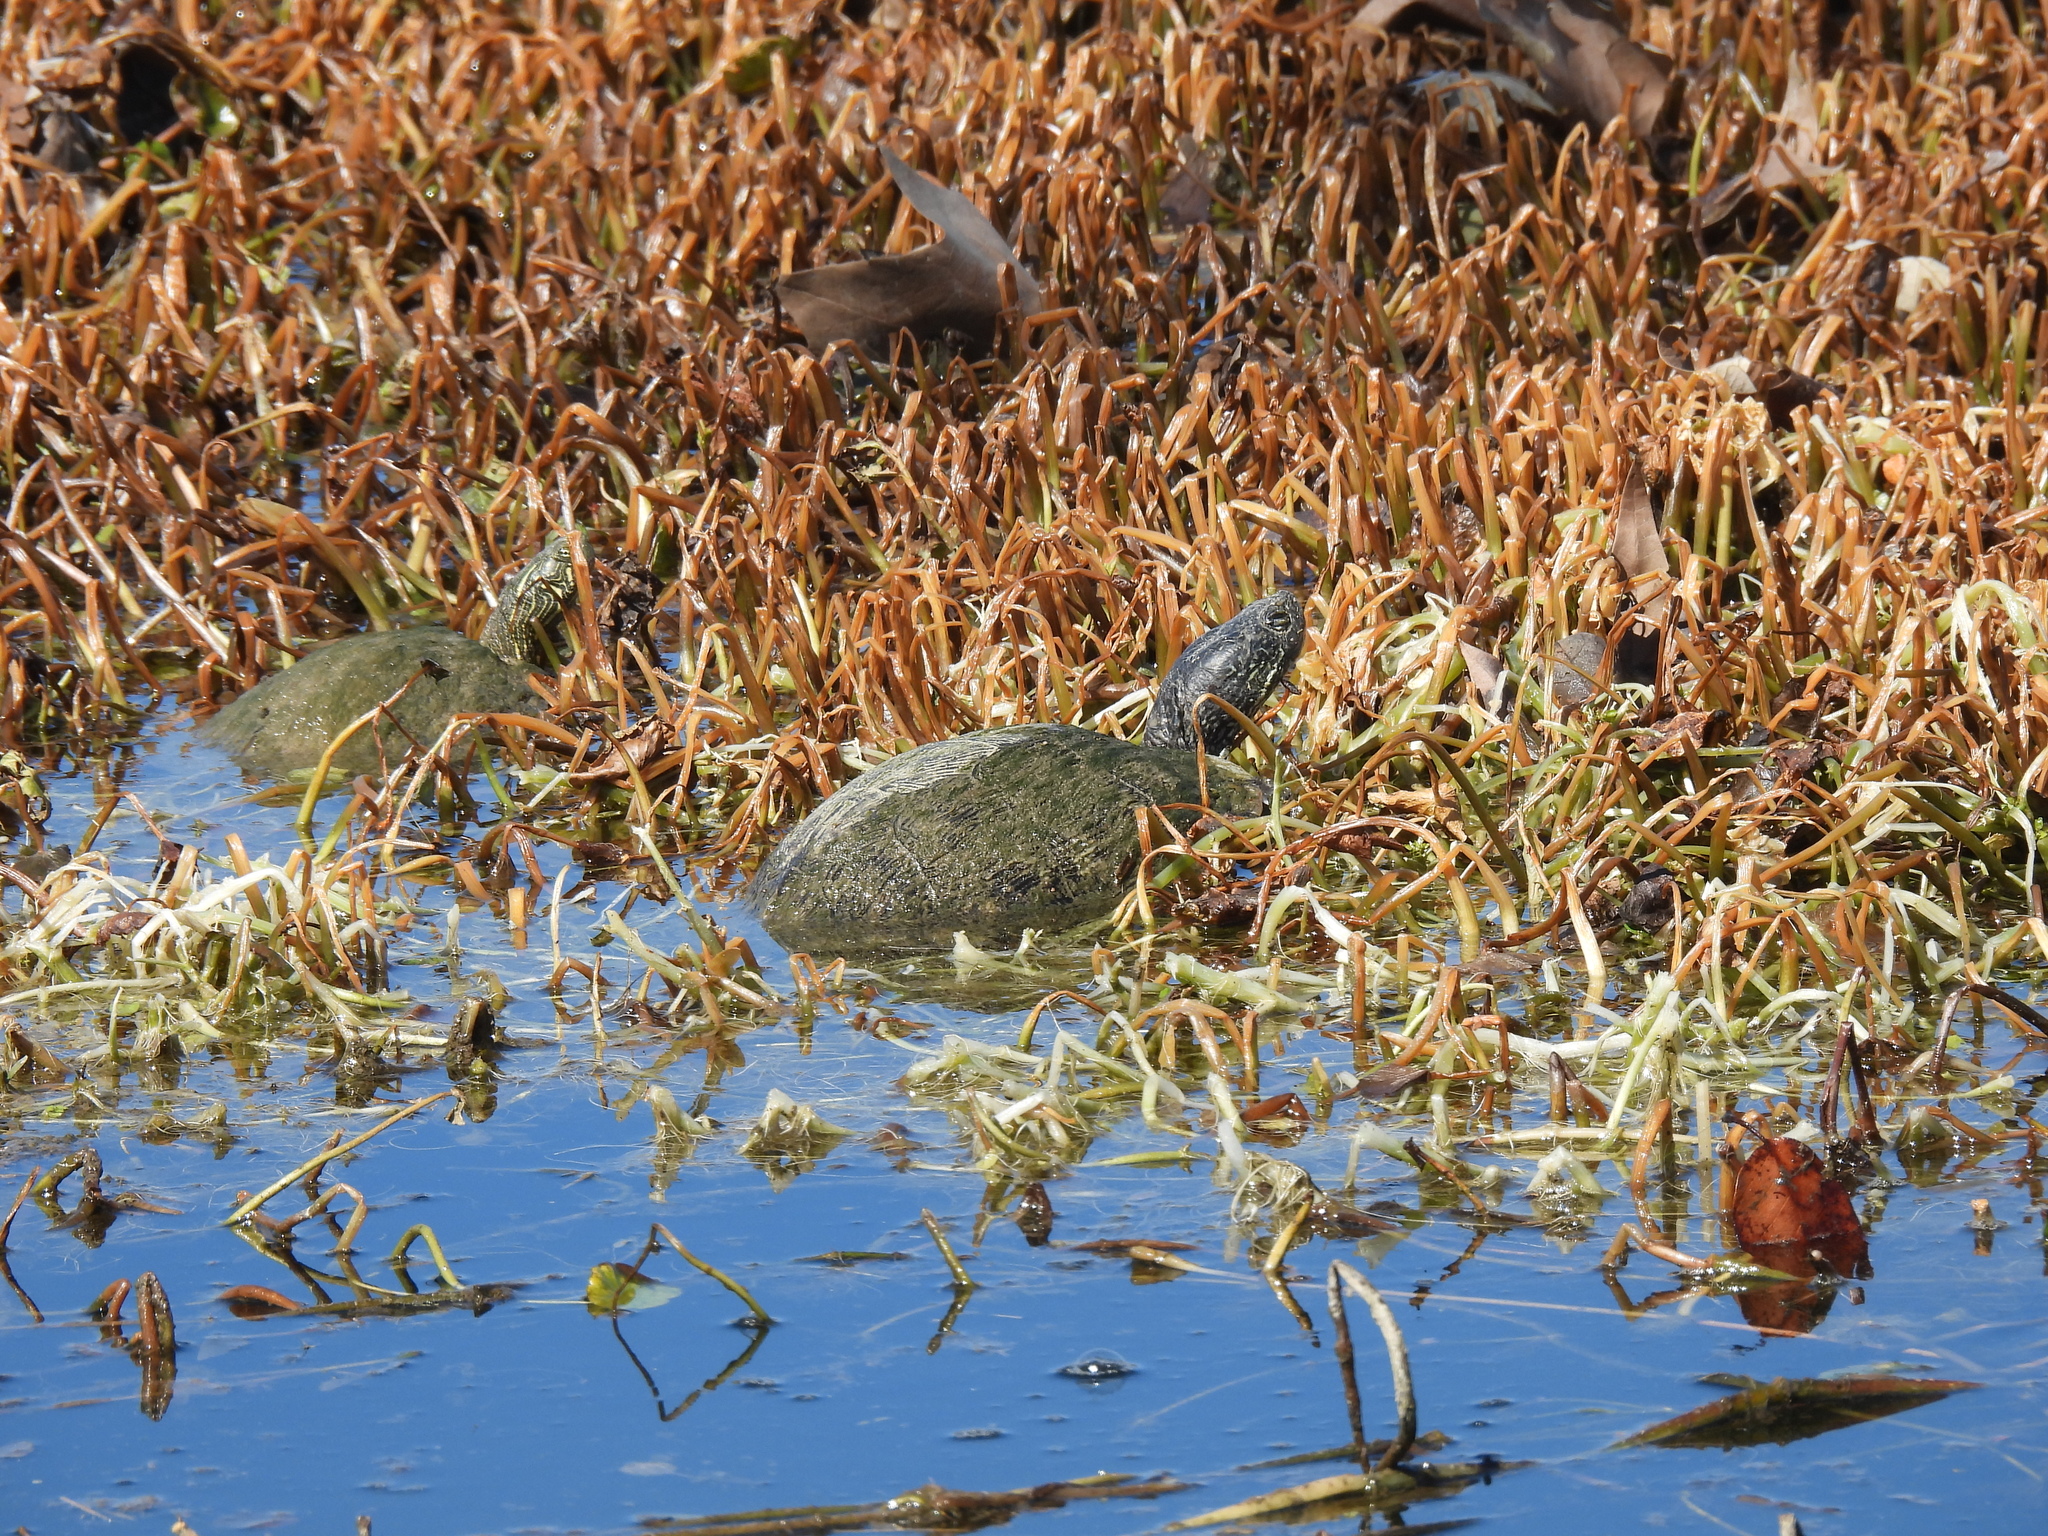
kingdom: Animalia
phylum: Chordata
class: Testudines
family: Emydidae
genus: Pseudemys
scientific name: Pseudemys texana
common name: Texas river cooter
